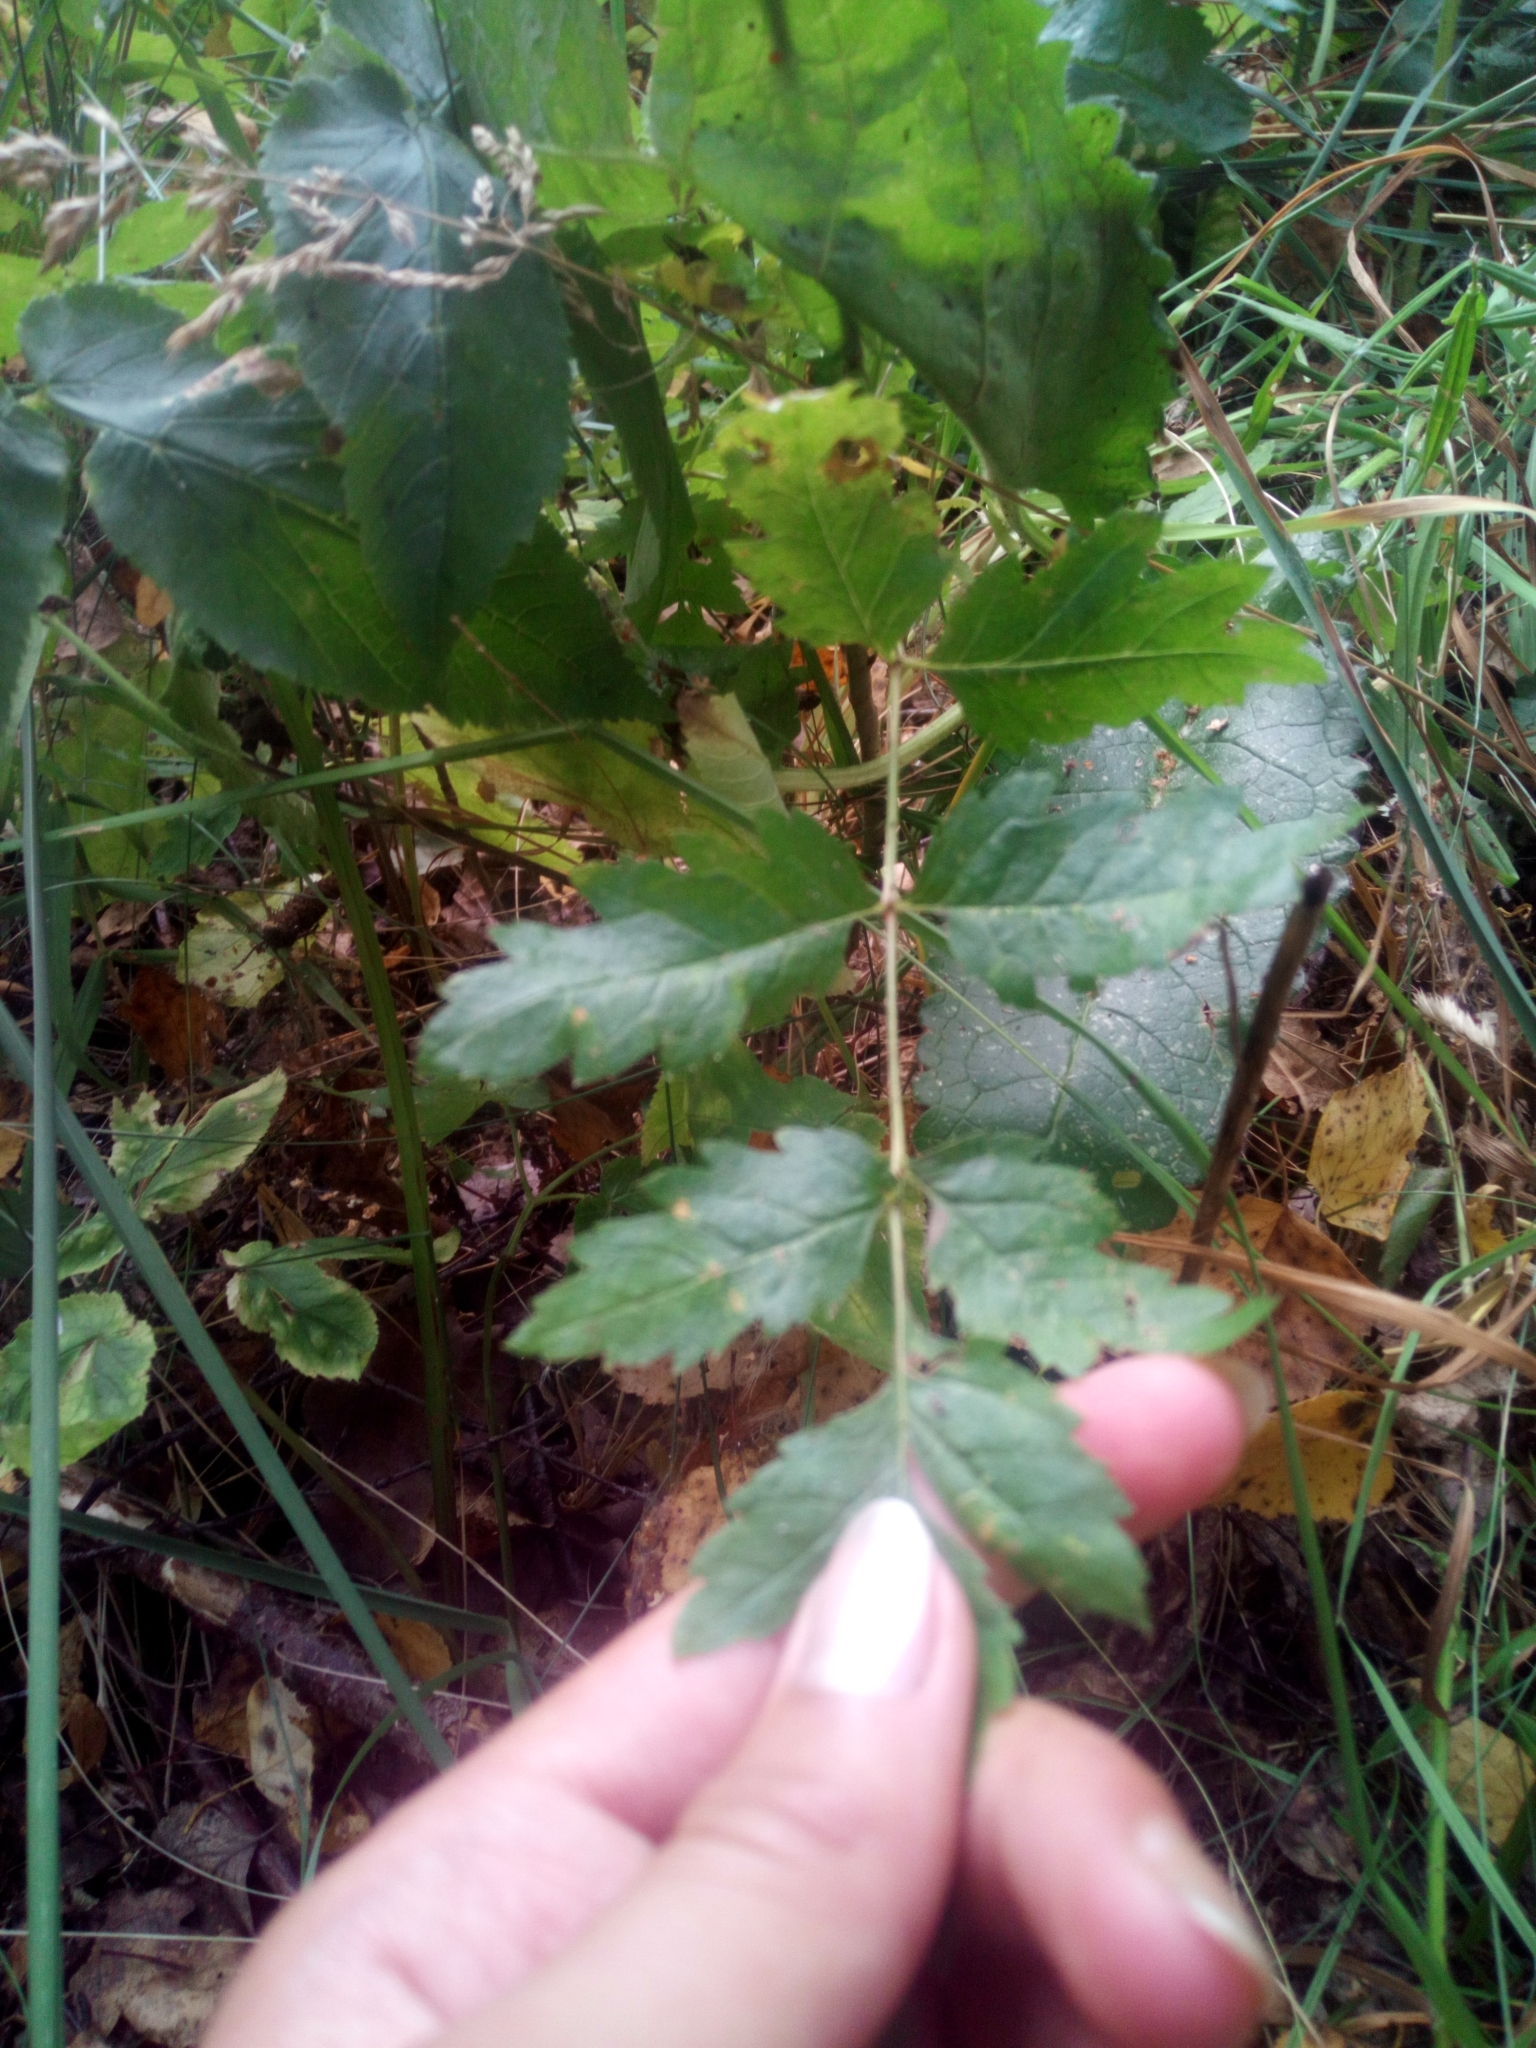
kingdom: Plantae
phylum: Tracheophyta
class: Magnoliopsida
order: Rosales
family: Rosaceae
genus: Sorbus
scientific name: Sorbus aucuparia
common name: Rowan
